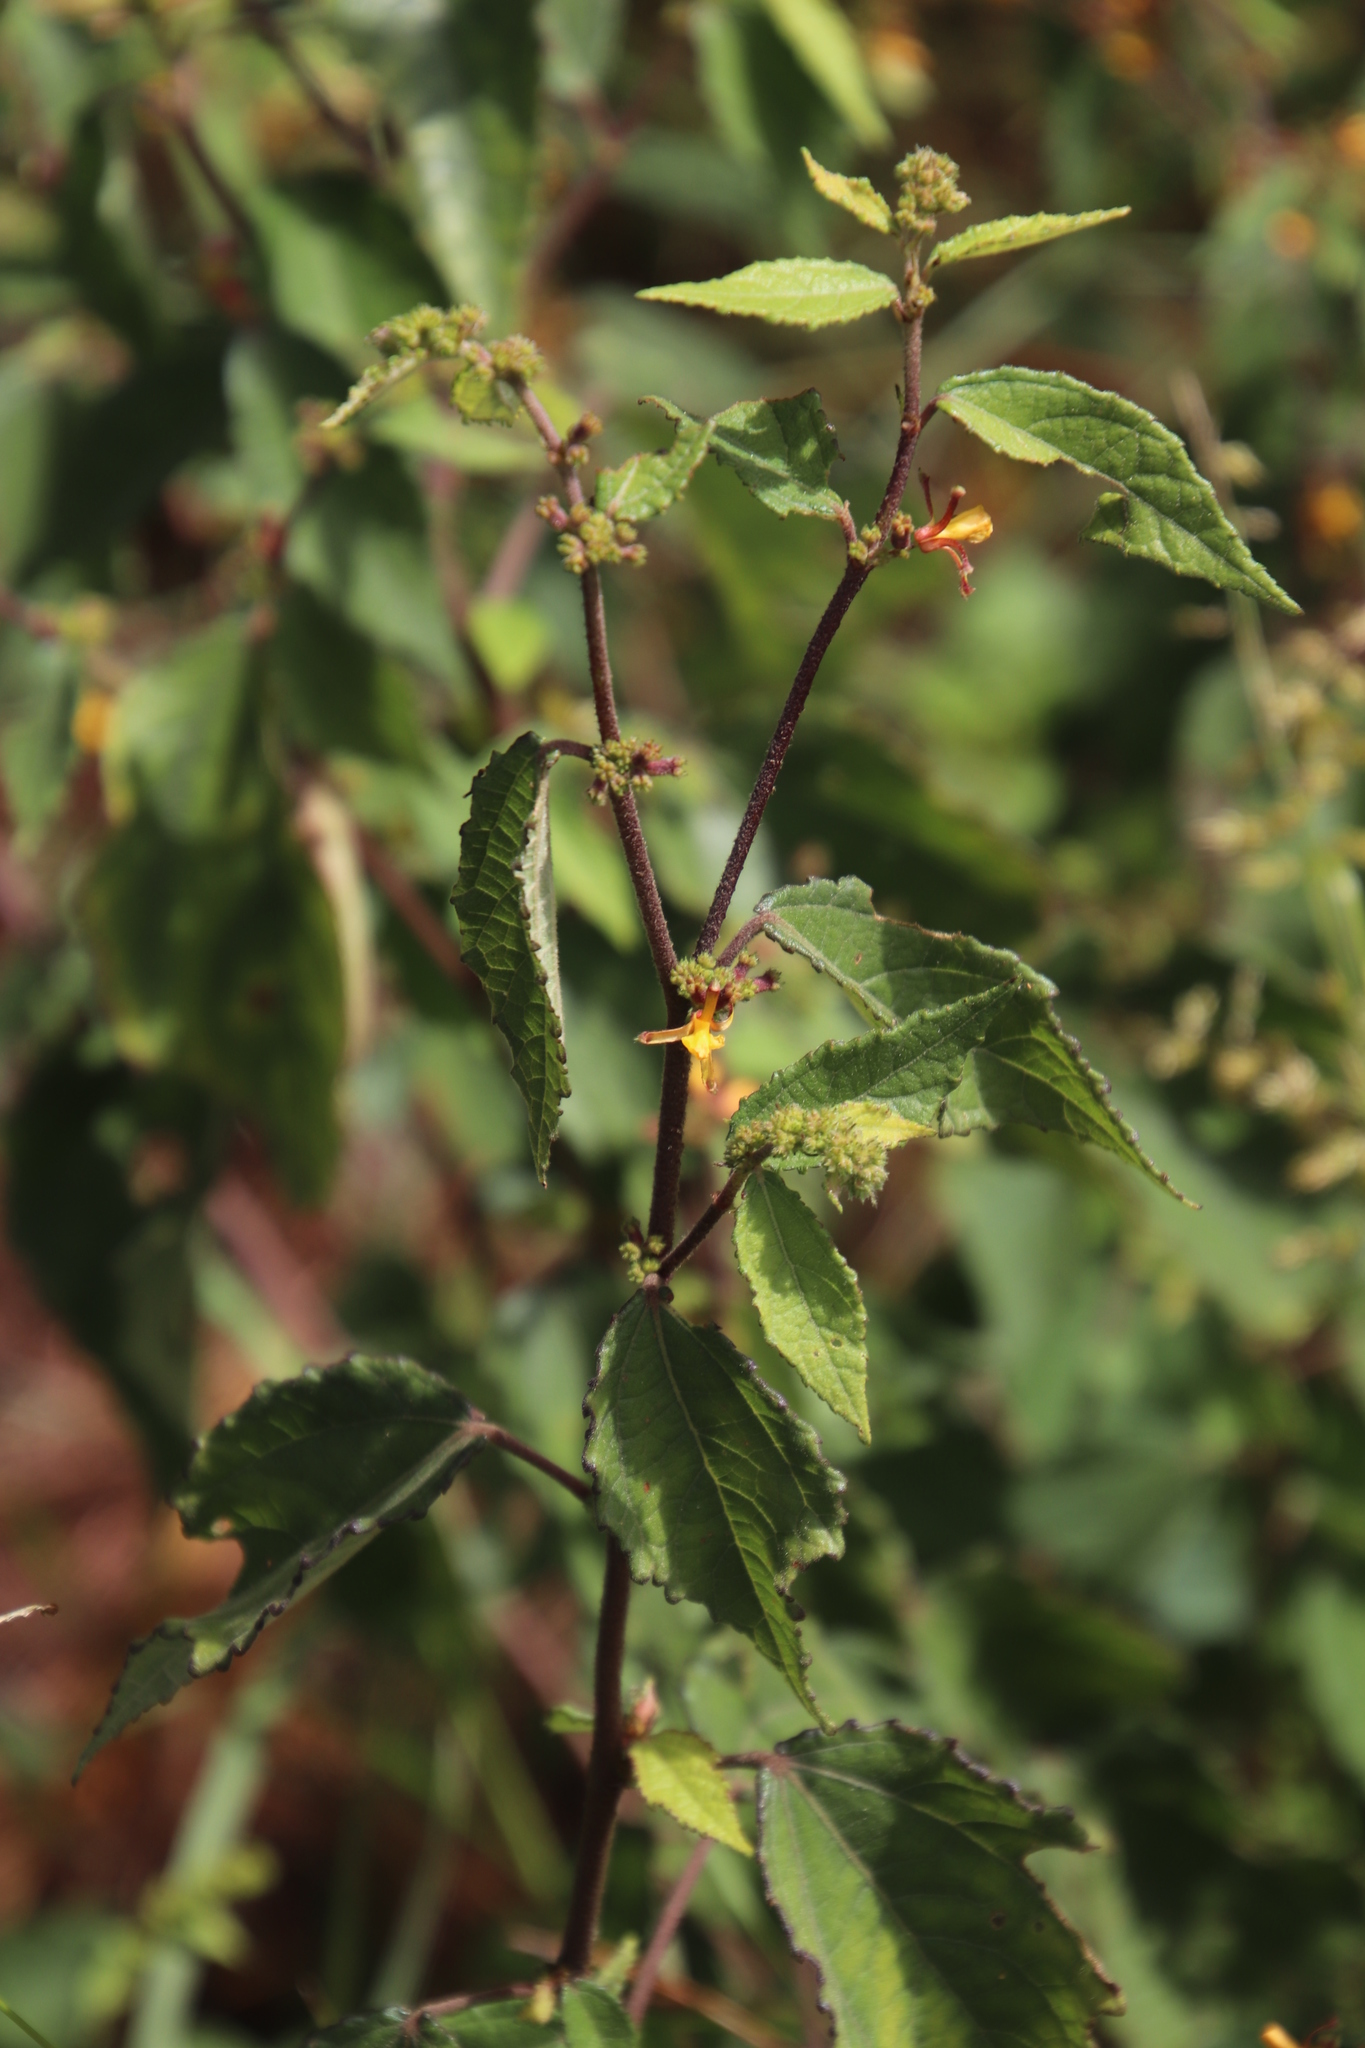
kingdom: Plantae
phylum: Tracheophyta
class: Magnoliopsida
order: Malvales
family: Malvaceae
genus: Triumfetta
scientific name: Triumfetta rhomboidea
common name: Diamond burbark
